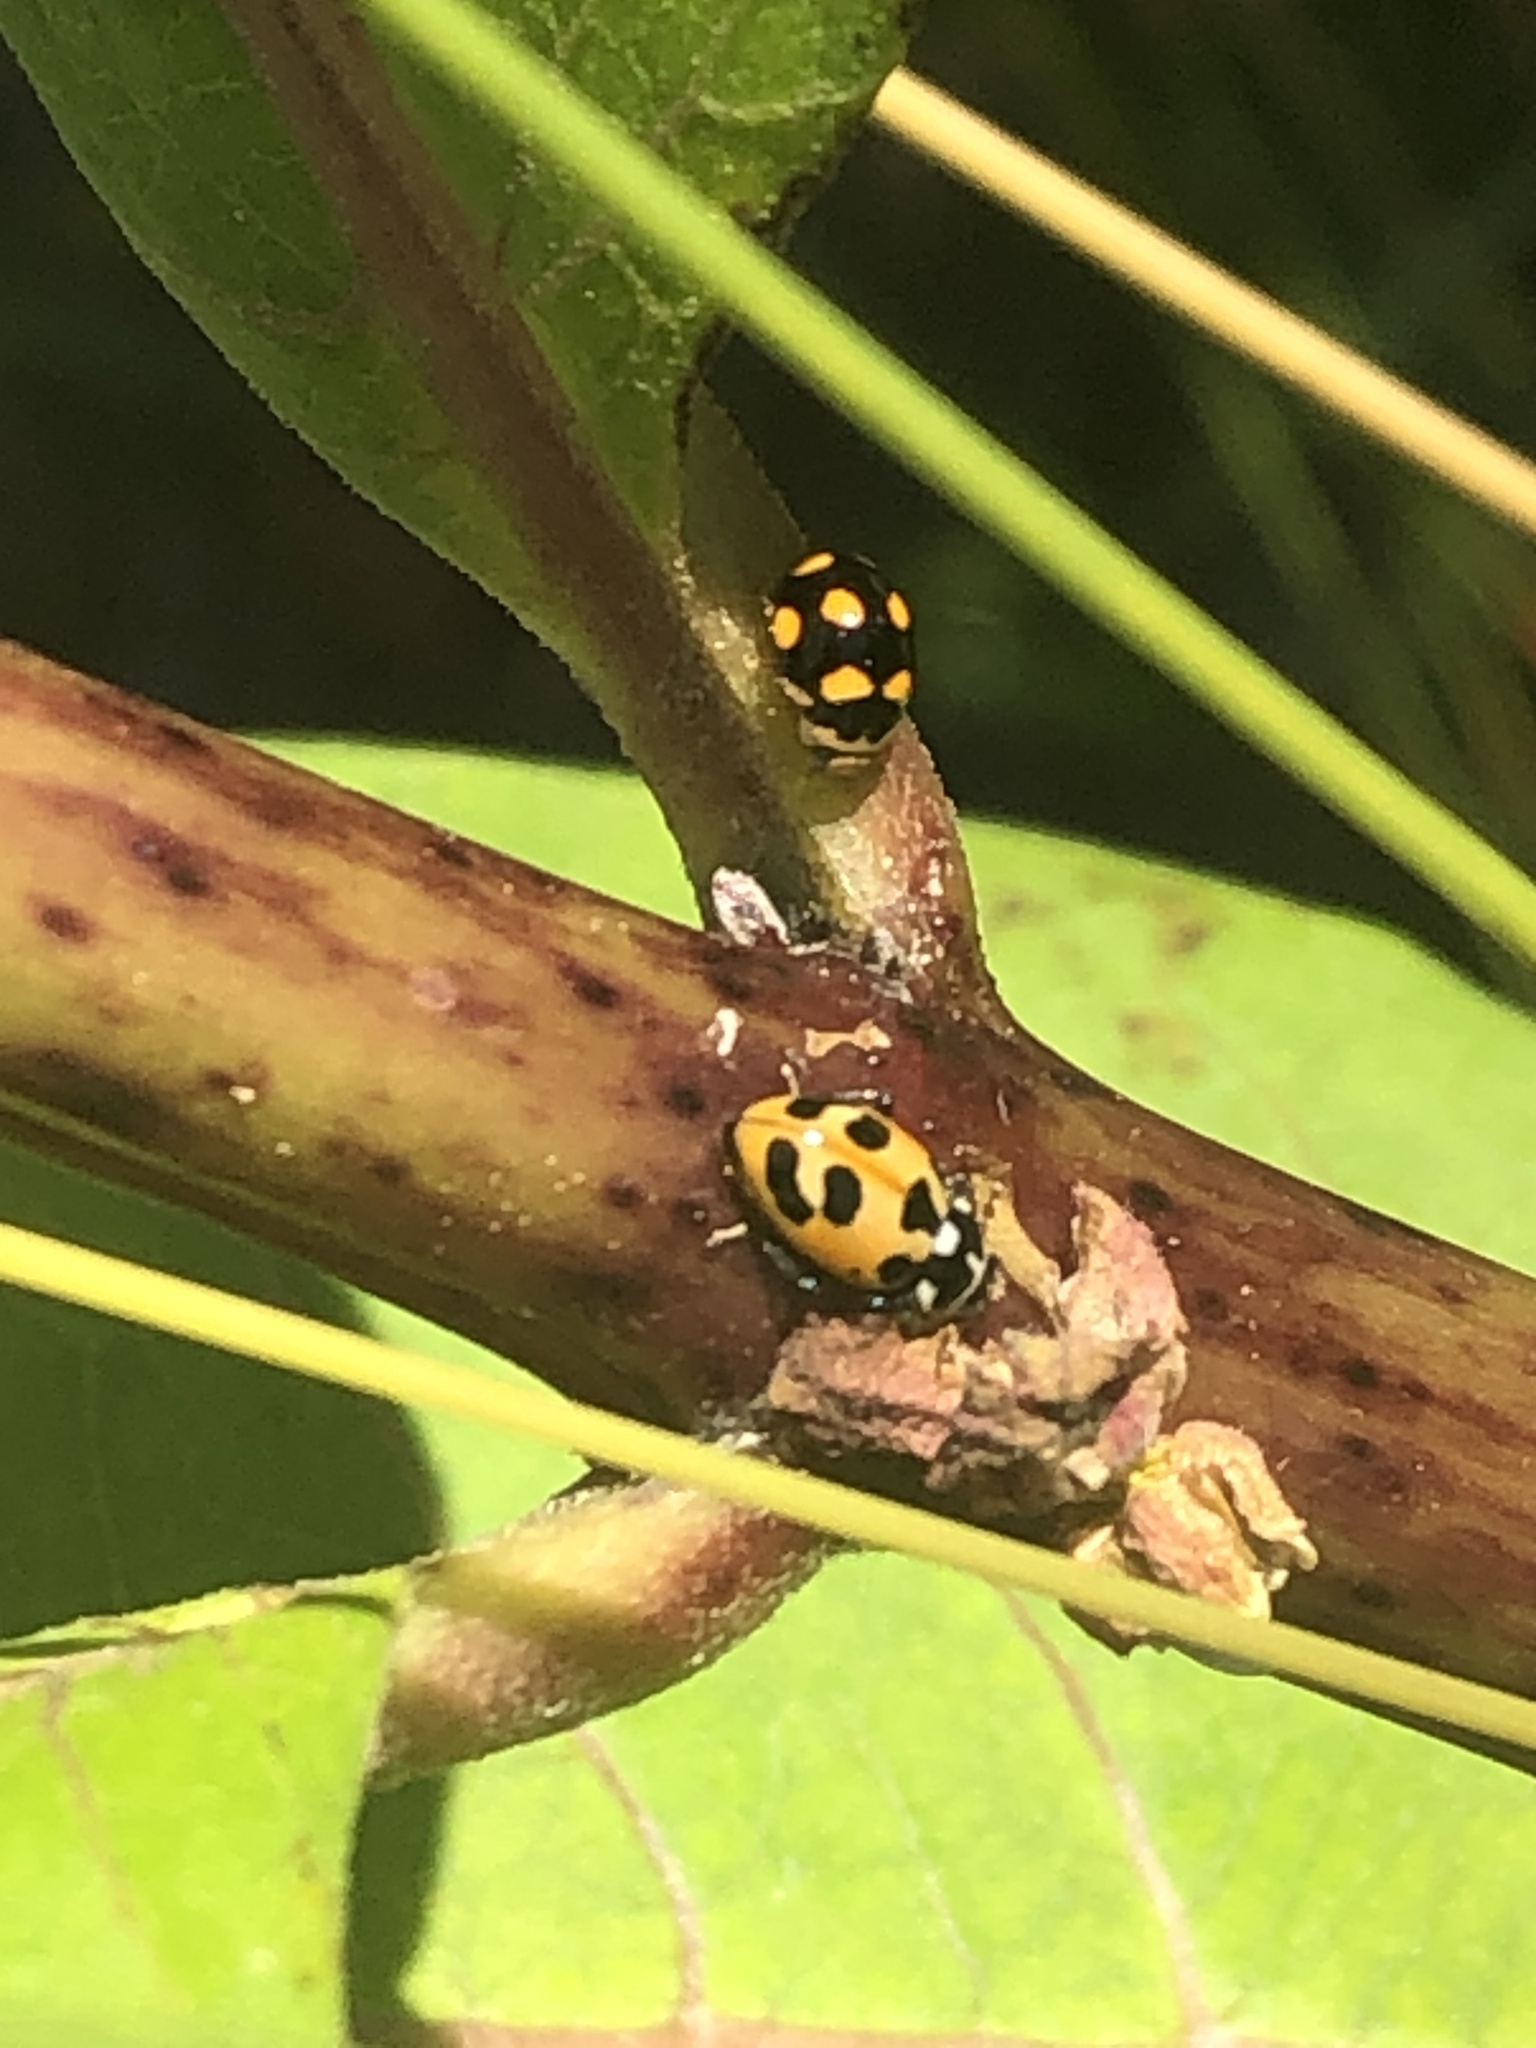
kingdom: Animalia
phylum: Arthropoda
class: Insecta
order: Coleoptera
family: Coccinellidae
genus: Hippodamia
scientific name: Hippodamia parenthesis
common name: Parenthesis lady beetle
